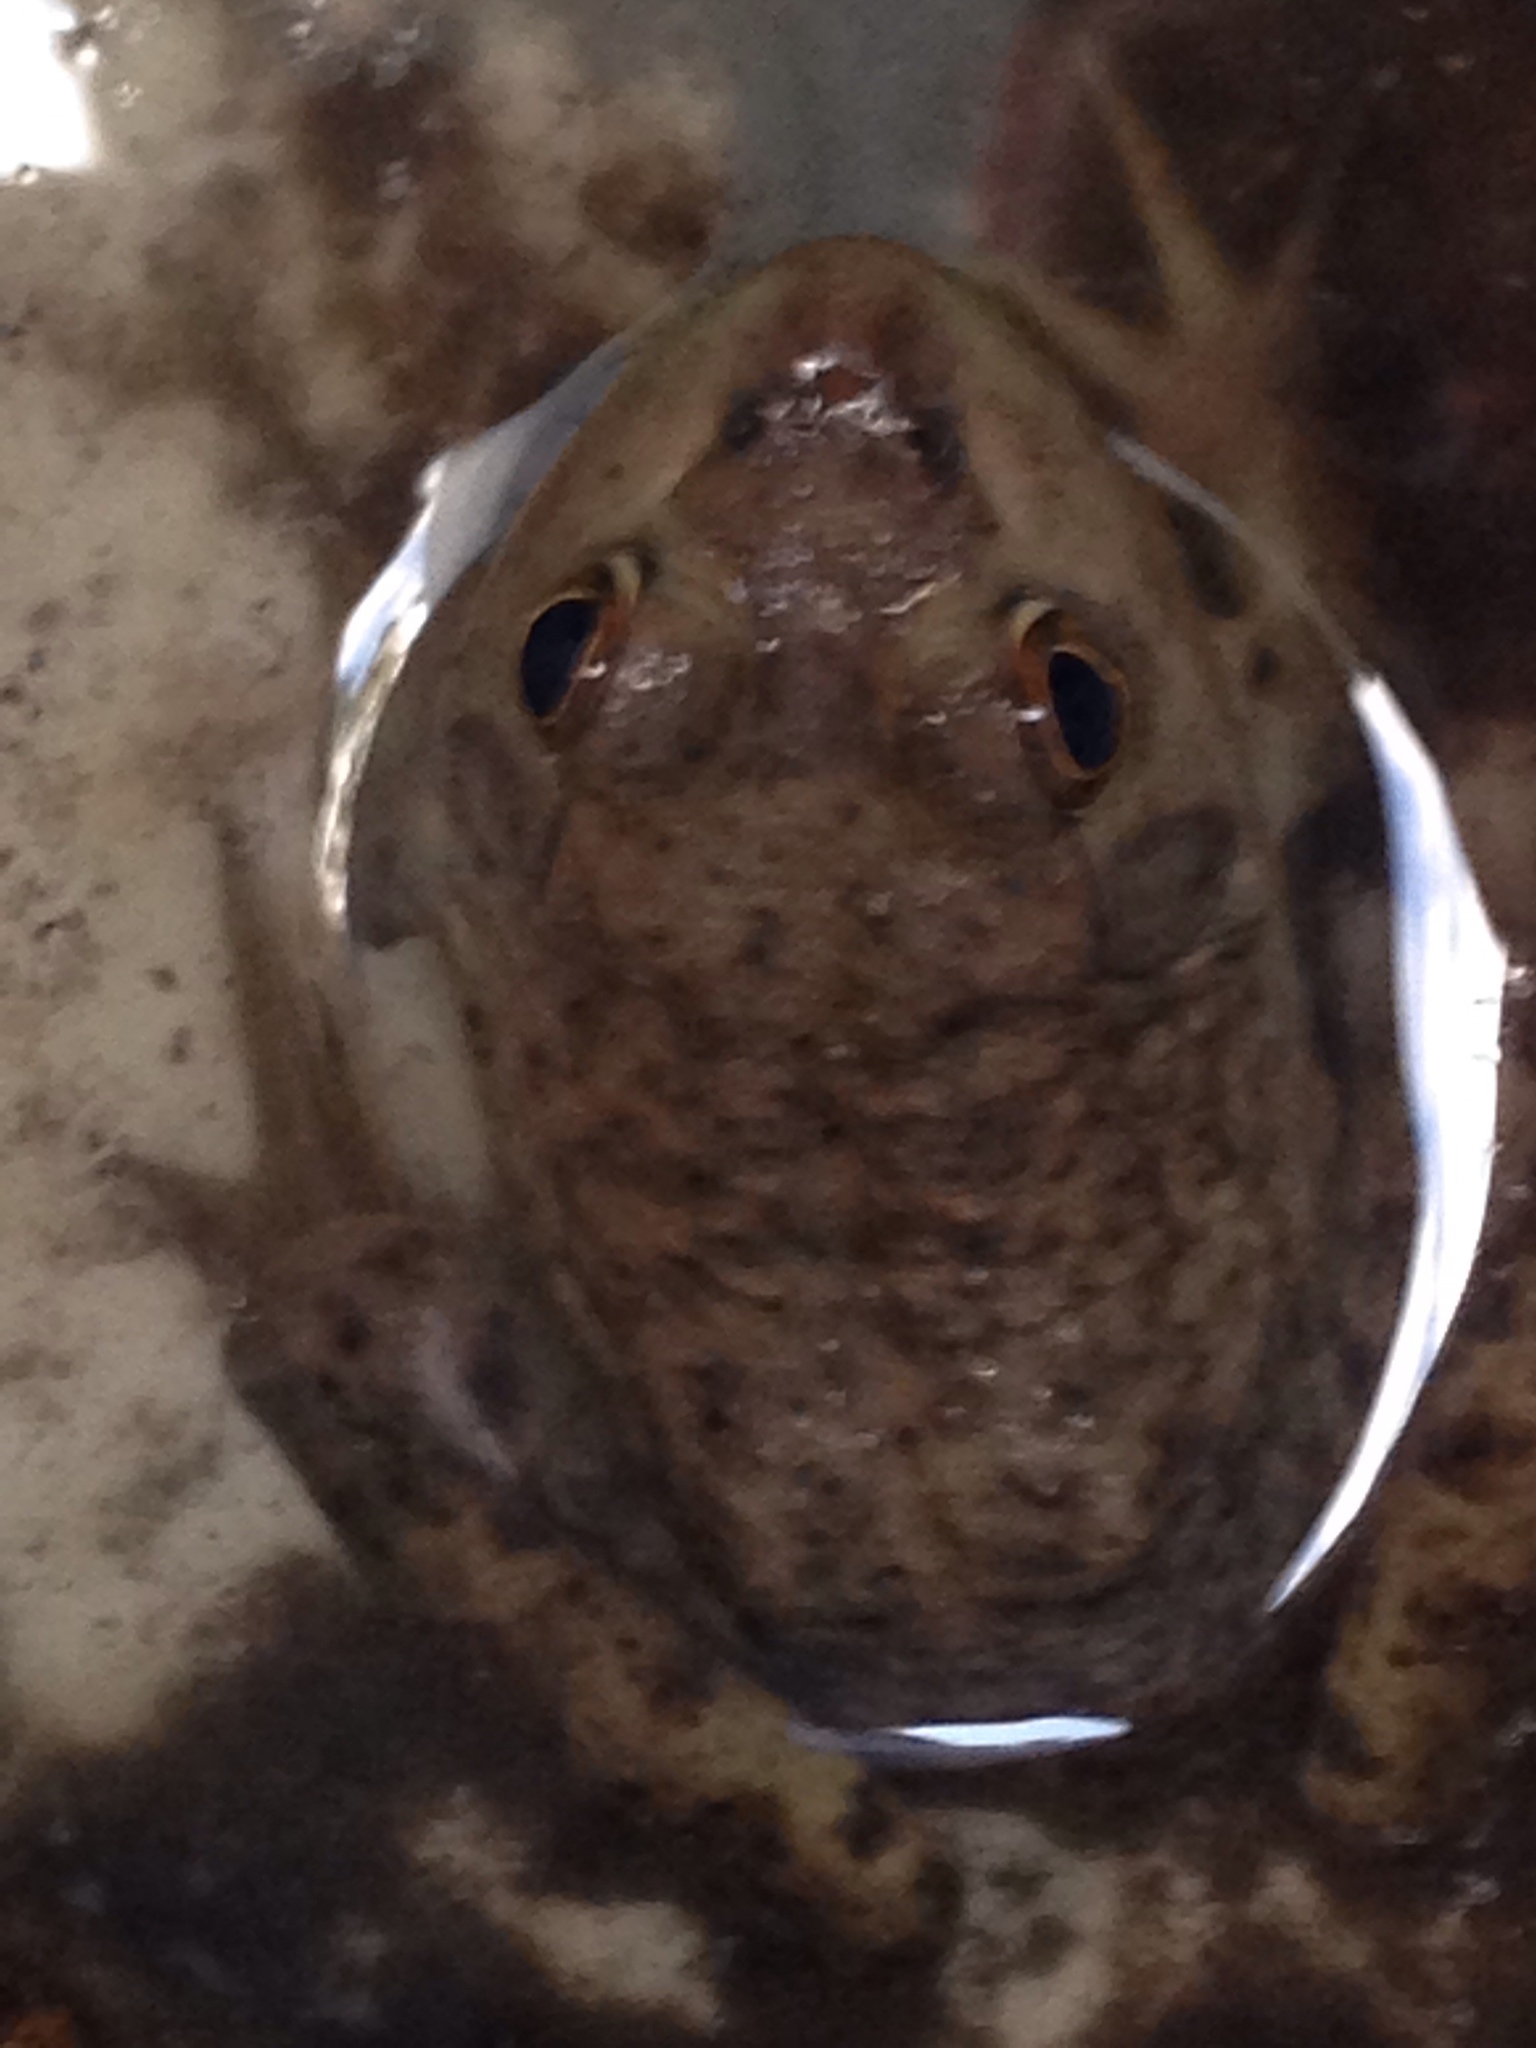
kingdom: Animalia
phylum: Chordata
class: Amphibia
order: Anura
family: Ranidae
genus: Lithobates
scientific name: Lithobates catesbeianus
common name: American bullfrog
